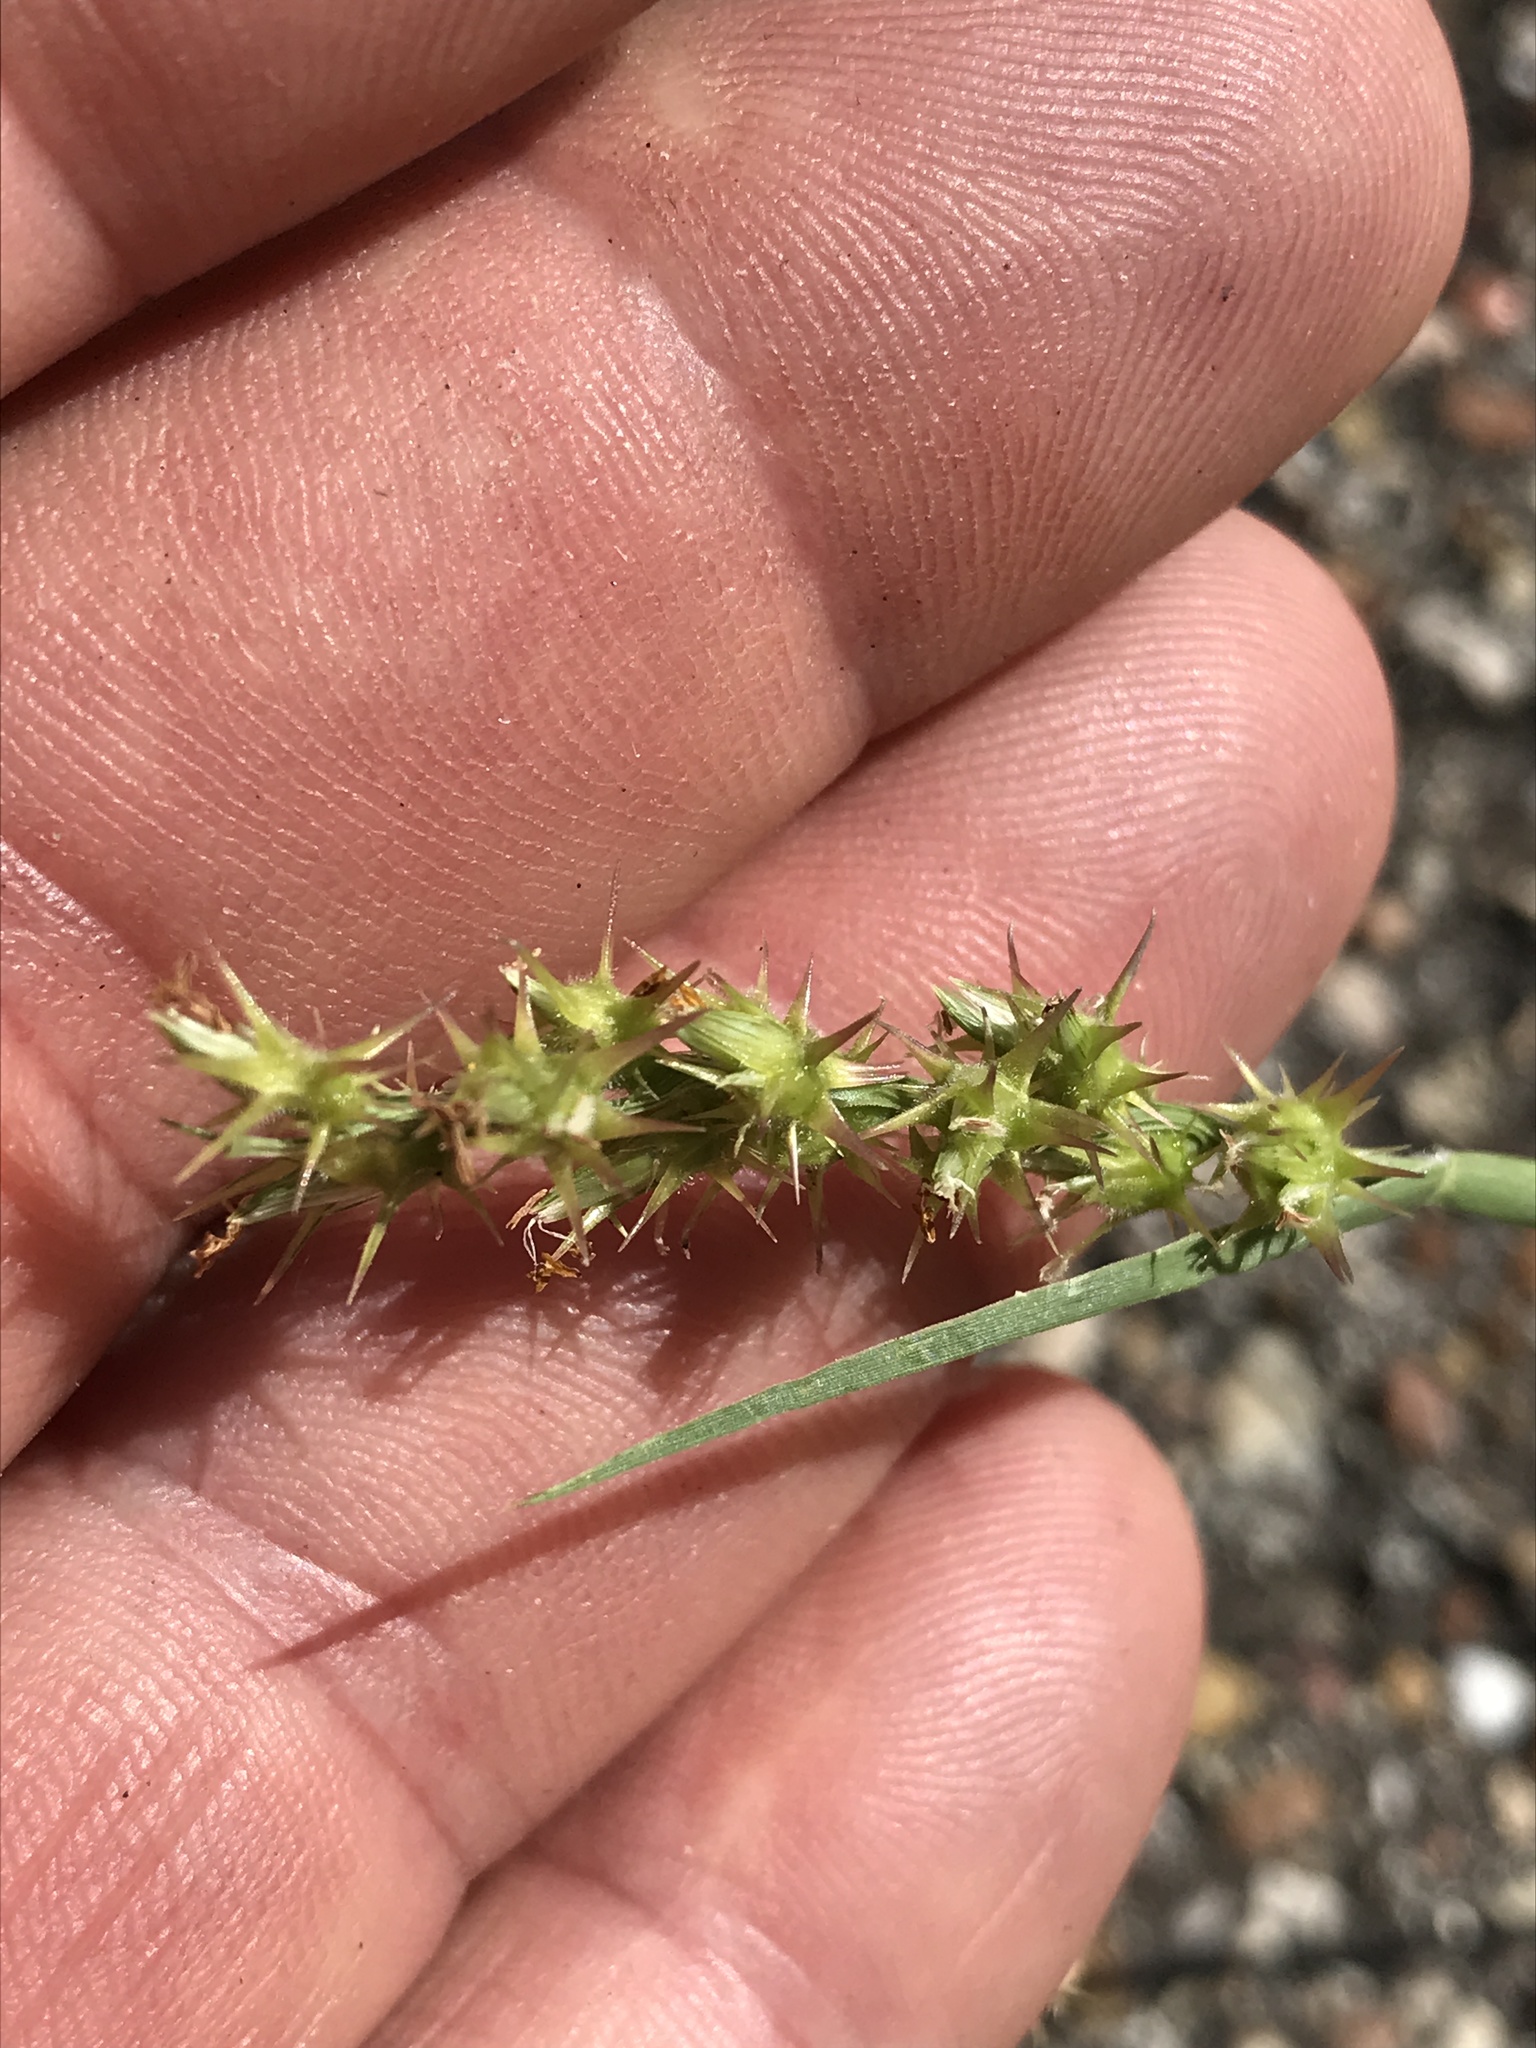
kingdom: Plantae
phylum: Tracheophyta
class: Liliopsida
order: Poales
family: Poaceae
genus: Cenchrus
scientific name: Cenchrus spinifex
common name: Coast sandbur
